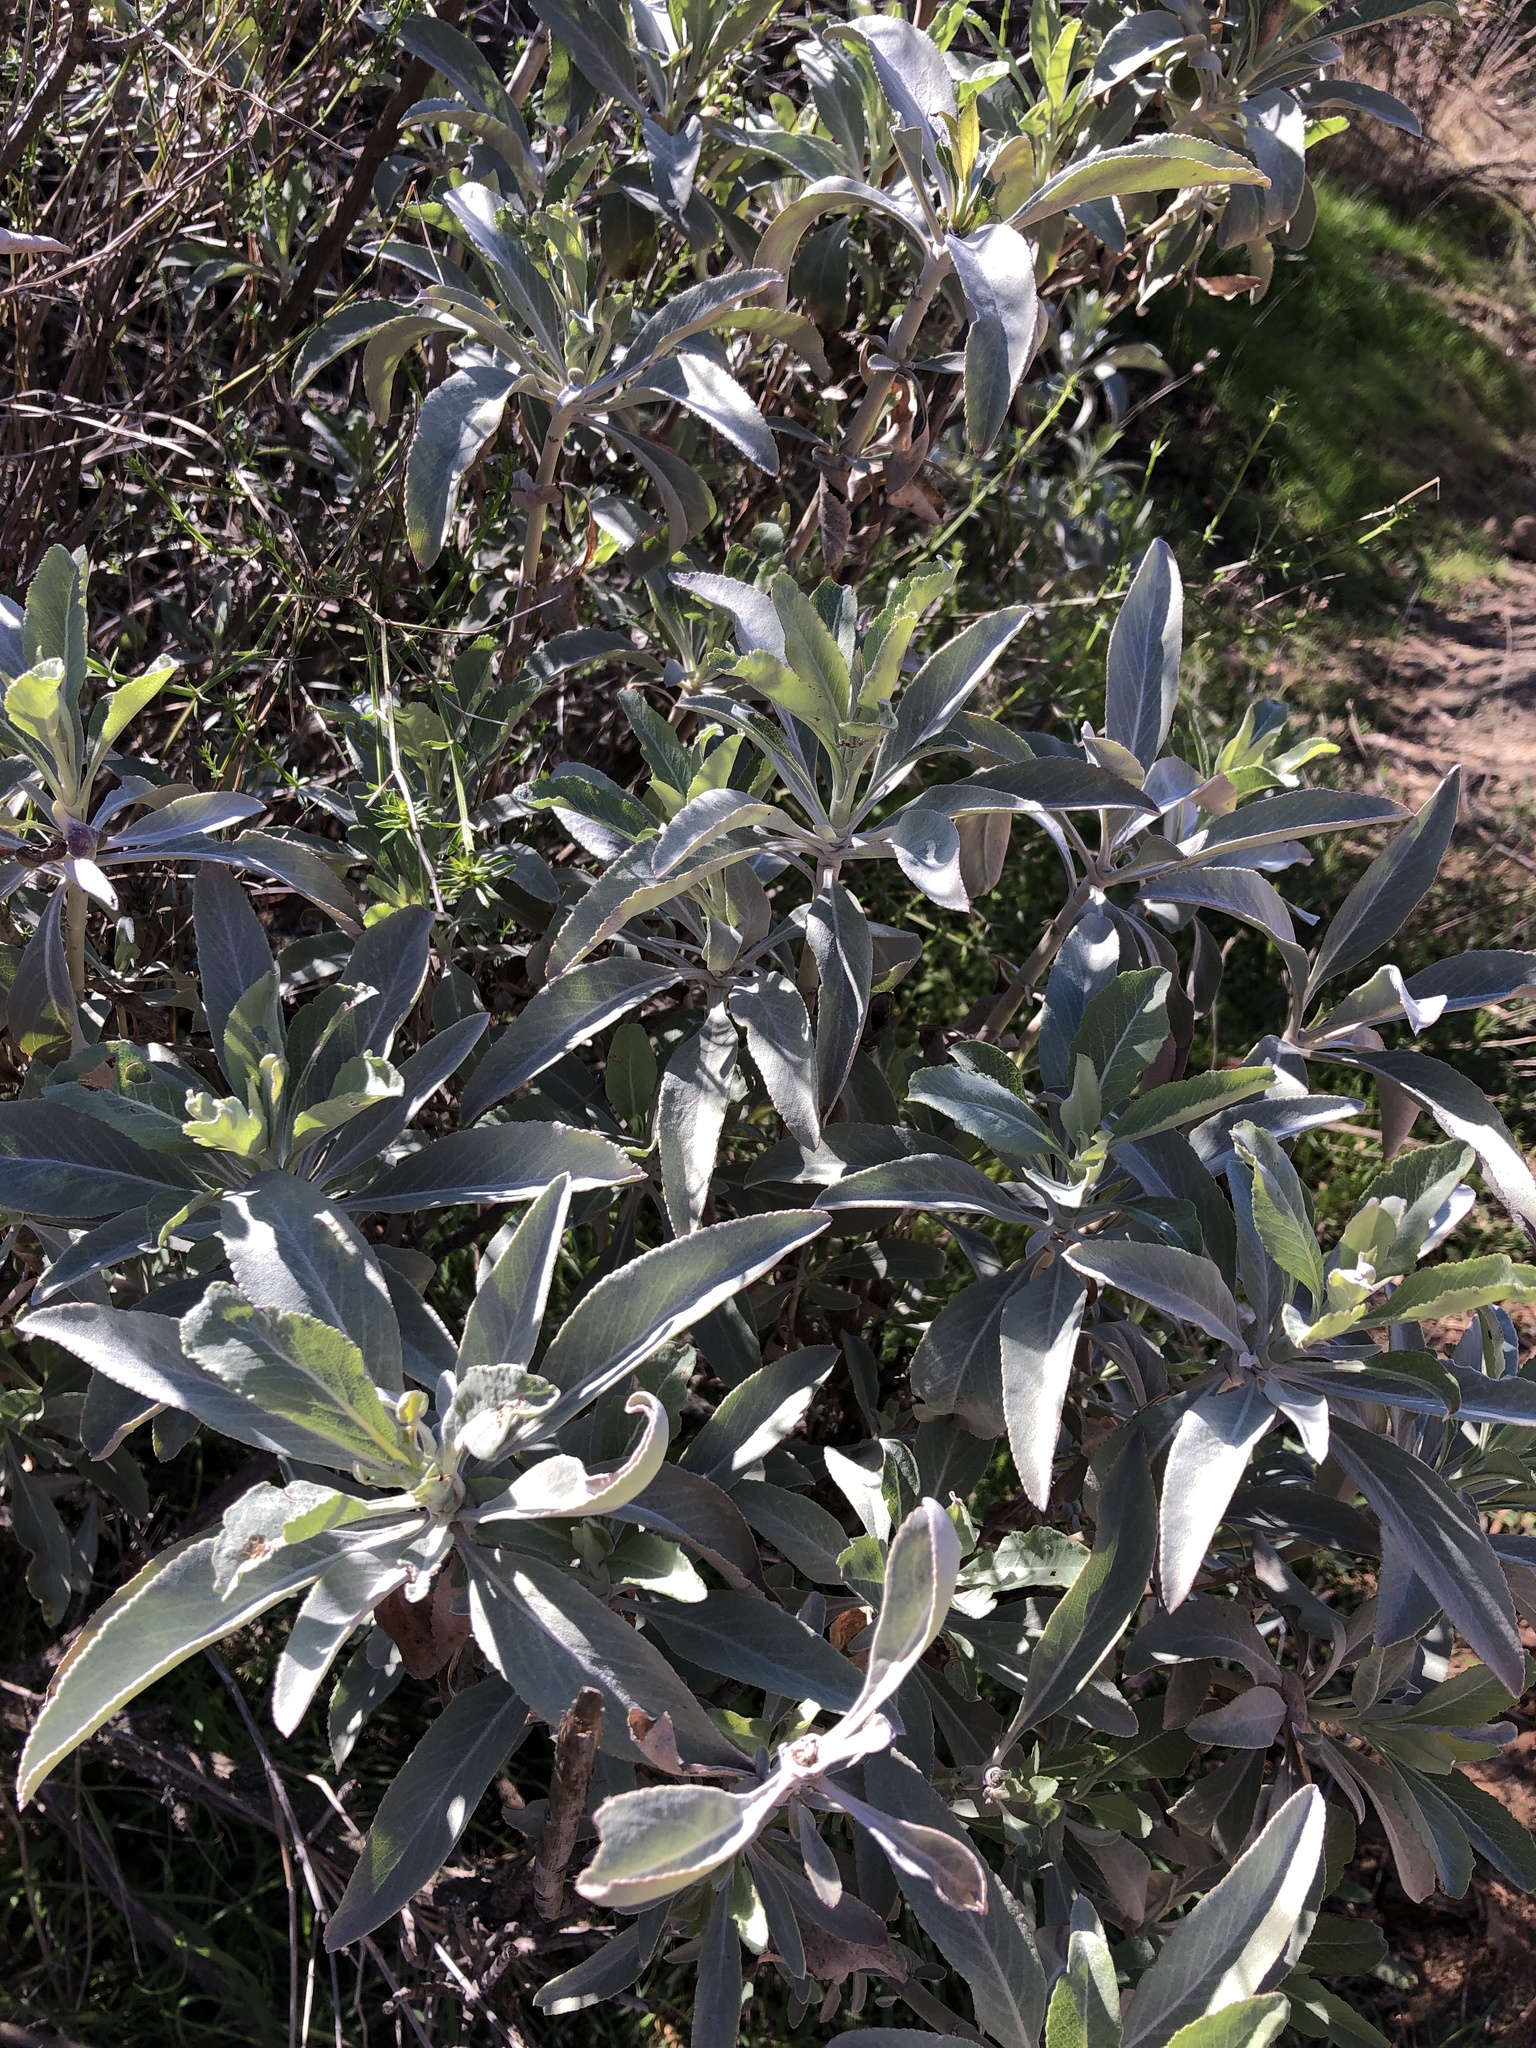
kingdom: Plantae
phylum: Tracheophyta
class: Magnoliopsida
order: Lamiales
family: Lamiaceae
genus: Salvia
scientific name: Salvia apiana
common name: White sage
